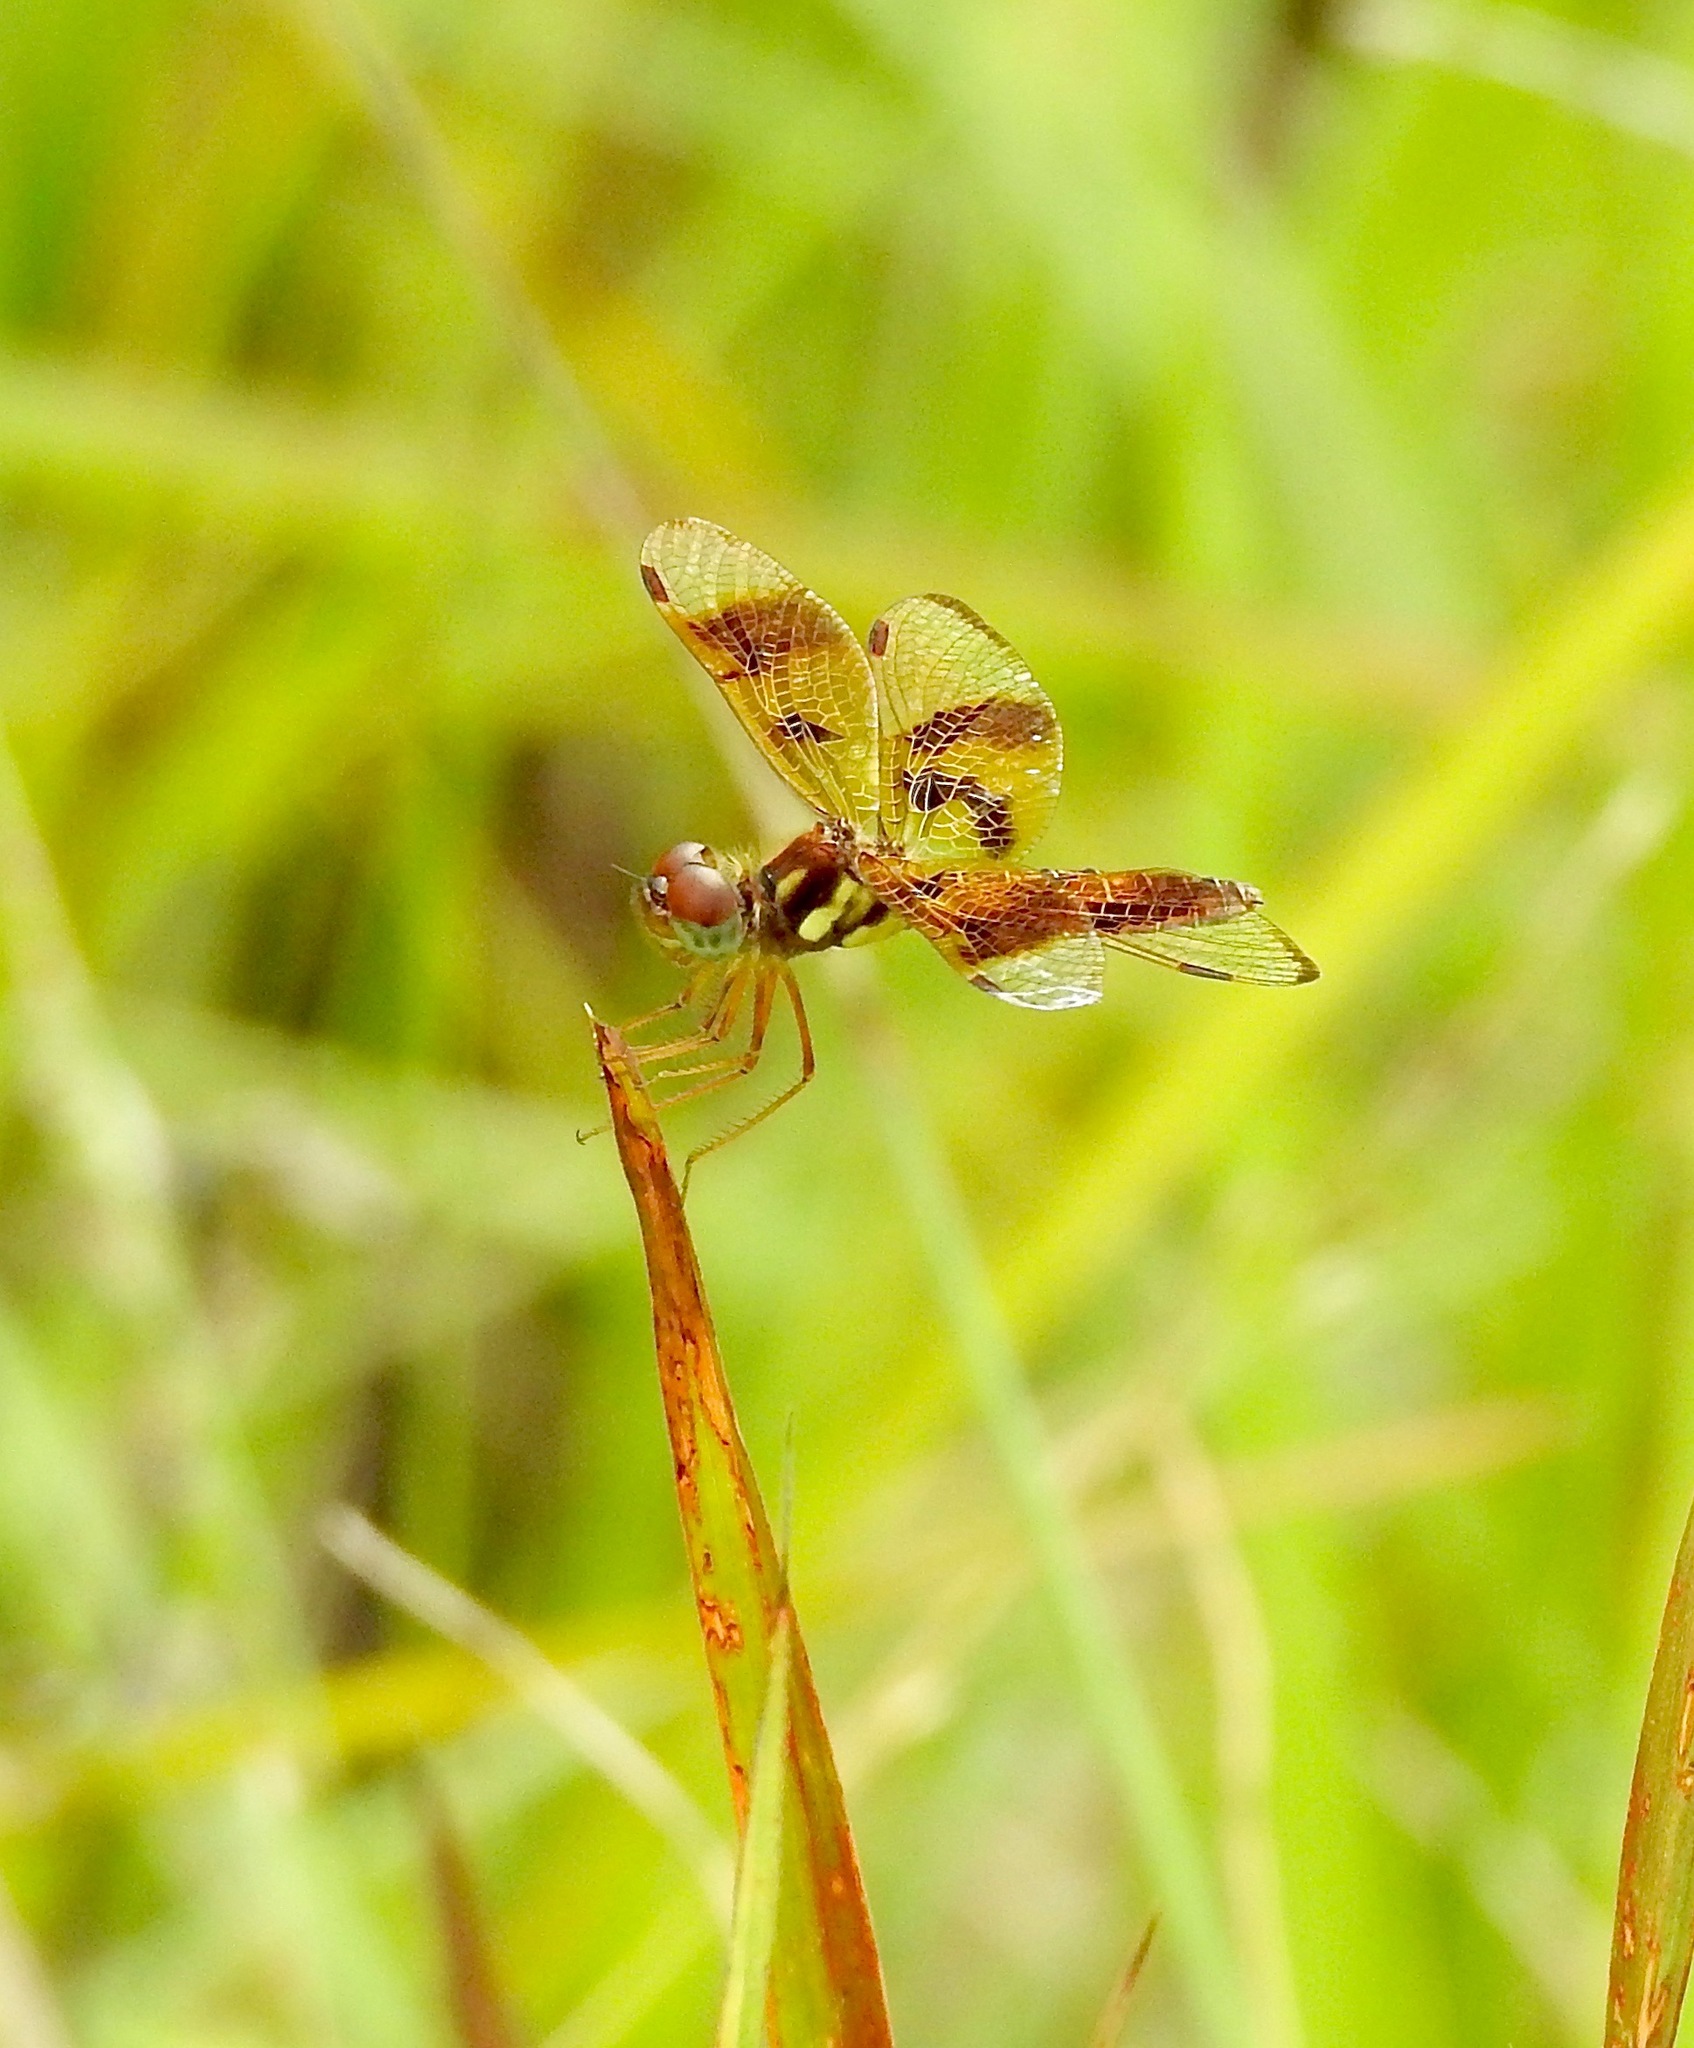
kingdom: Animalia
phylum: Arthropoda
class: Insecta
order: Odonata
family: Libellulidae
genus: Perithemis
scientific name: Perithemis tenera
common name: Eastern amberwing
